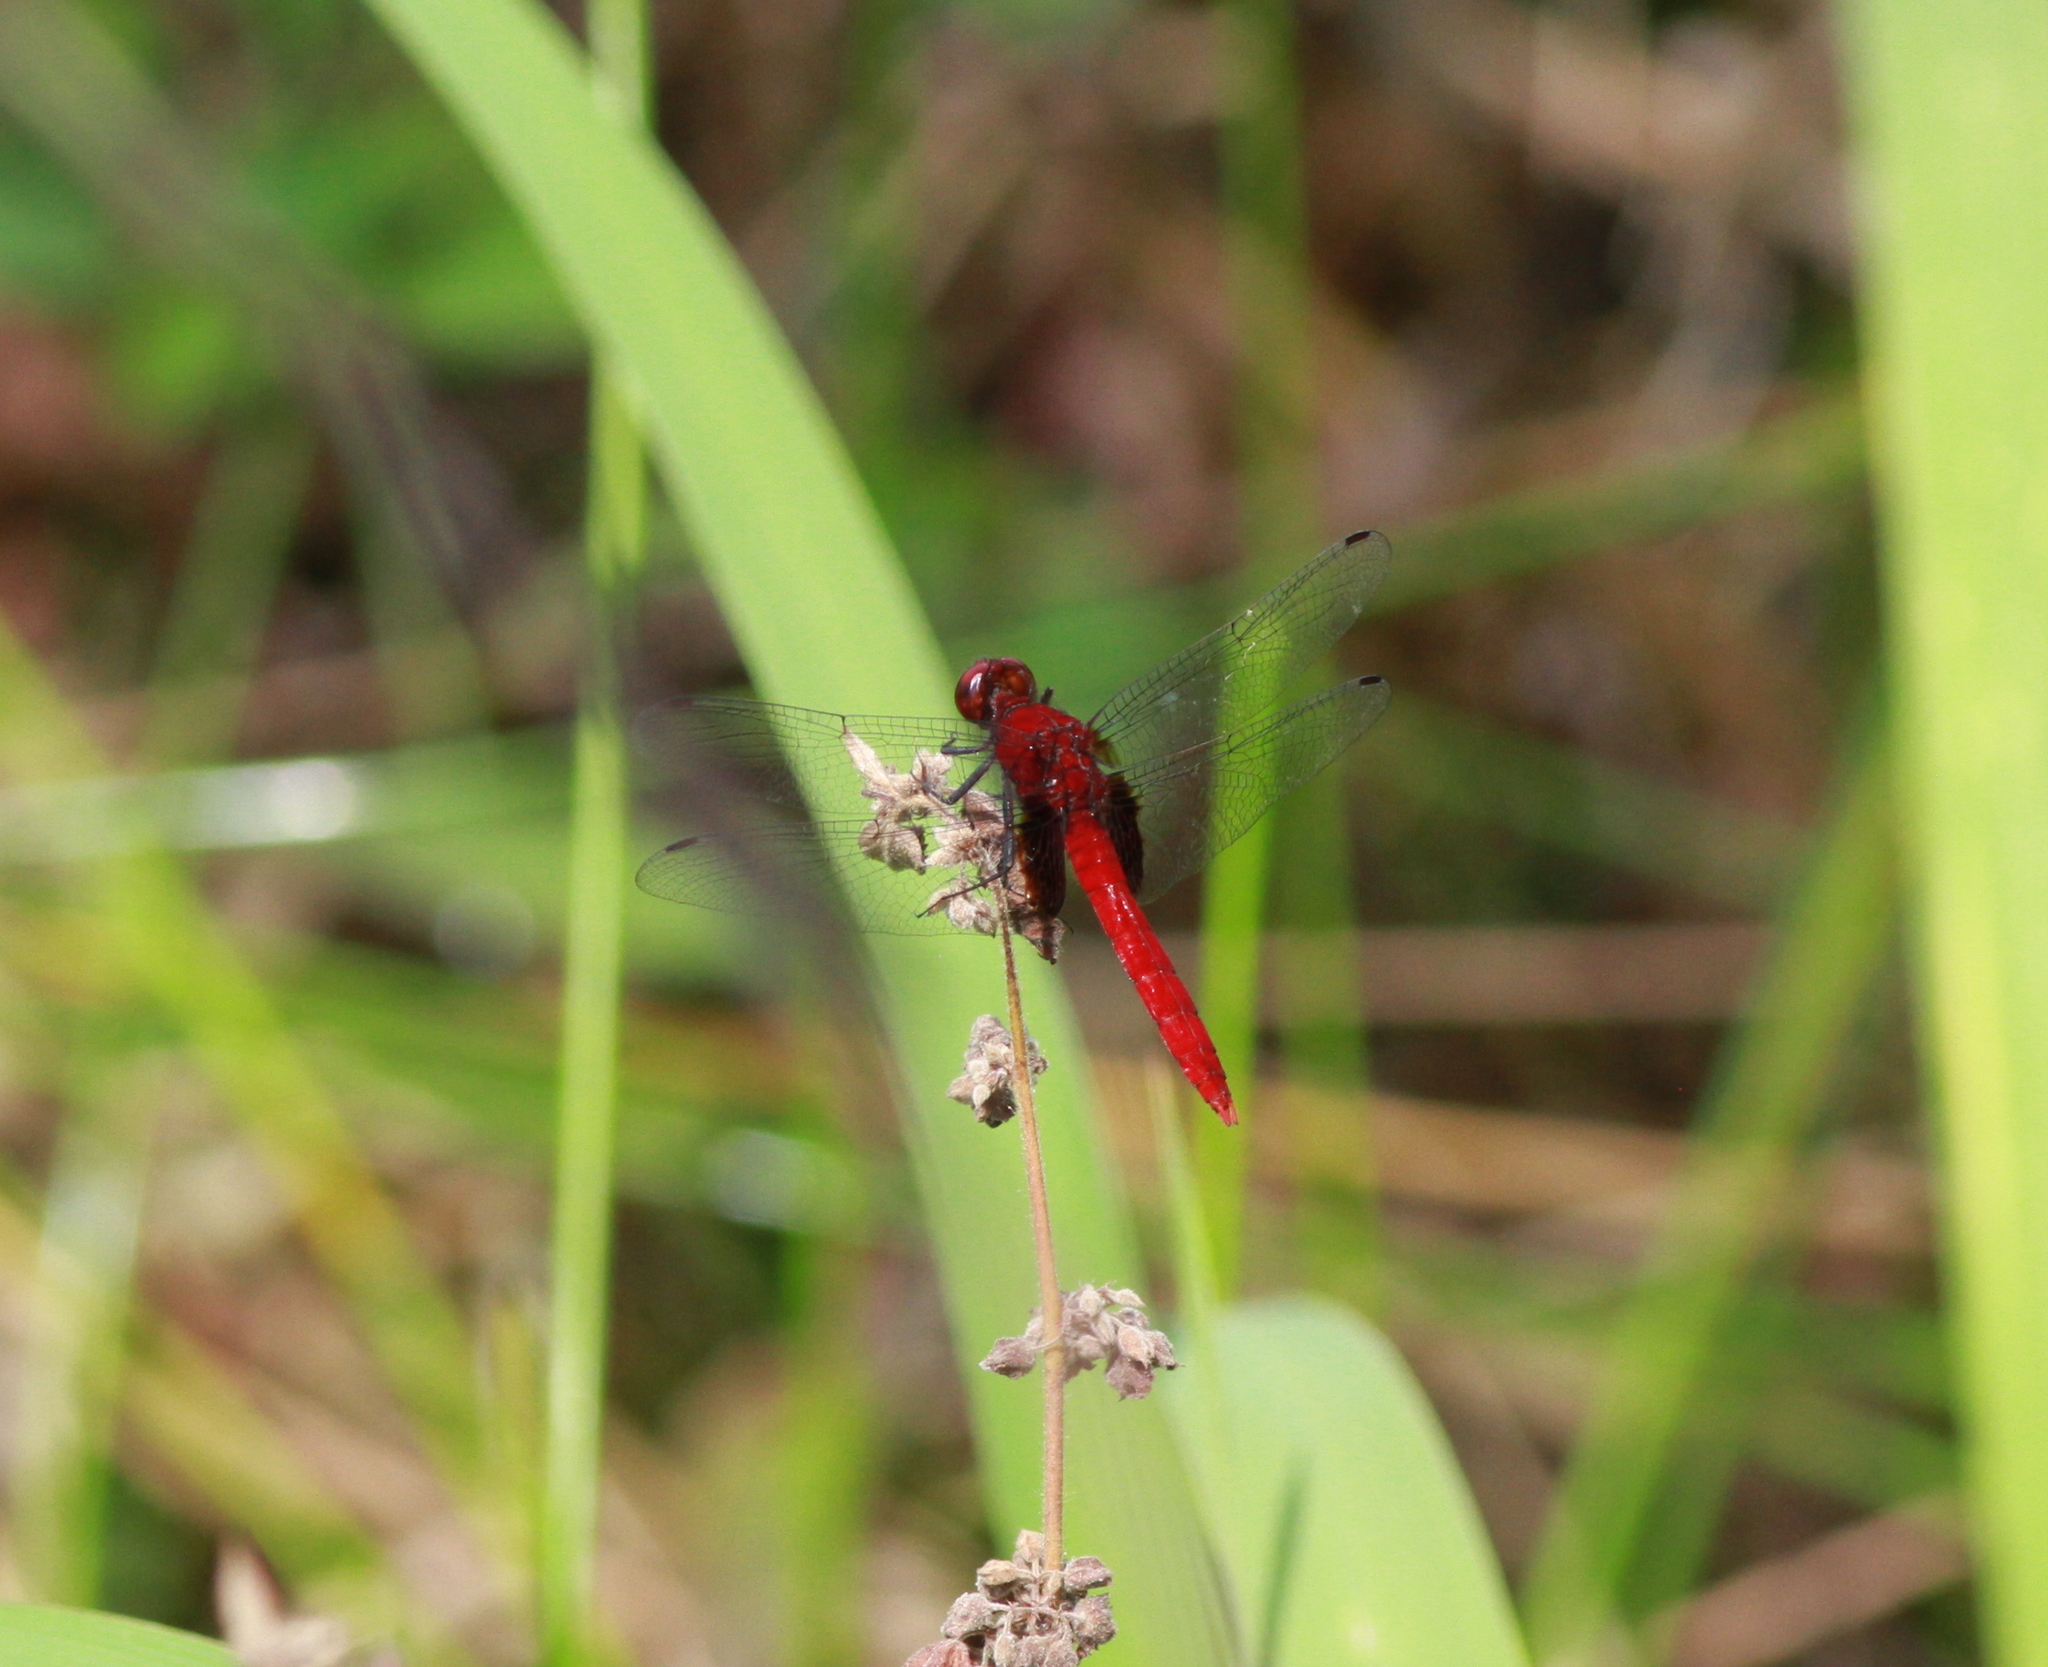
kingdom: Animalia
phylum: Arthropoda
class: Insecta
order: Odonata
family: Libellulidae
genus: Erythemis
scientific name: Erythemis mithroides
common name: Claret pondhawk
